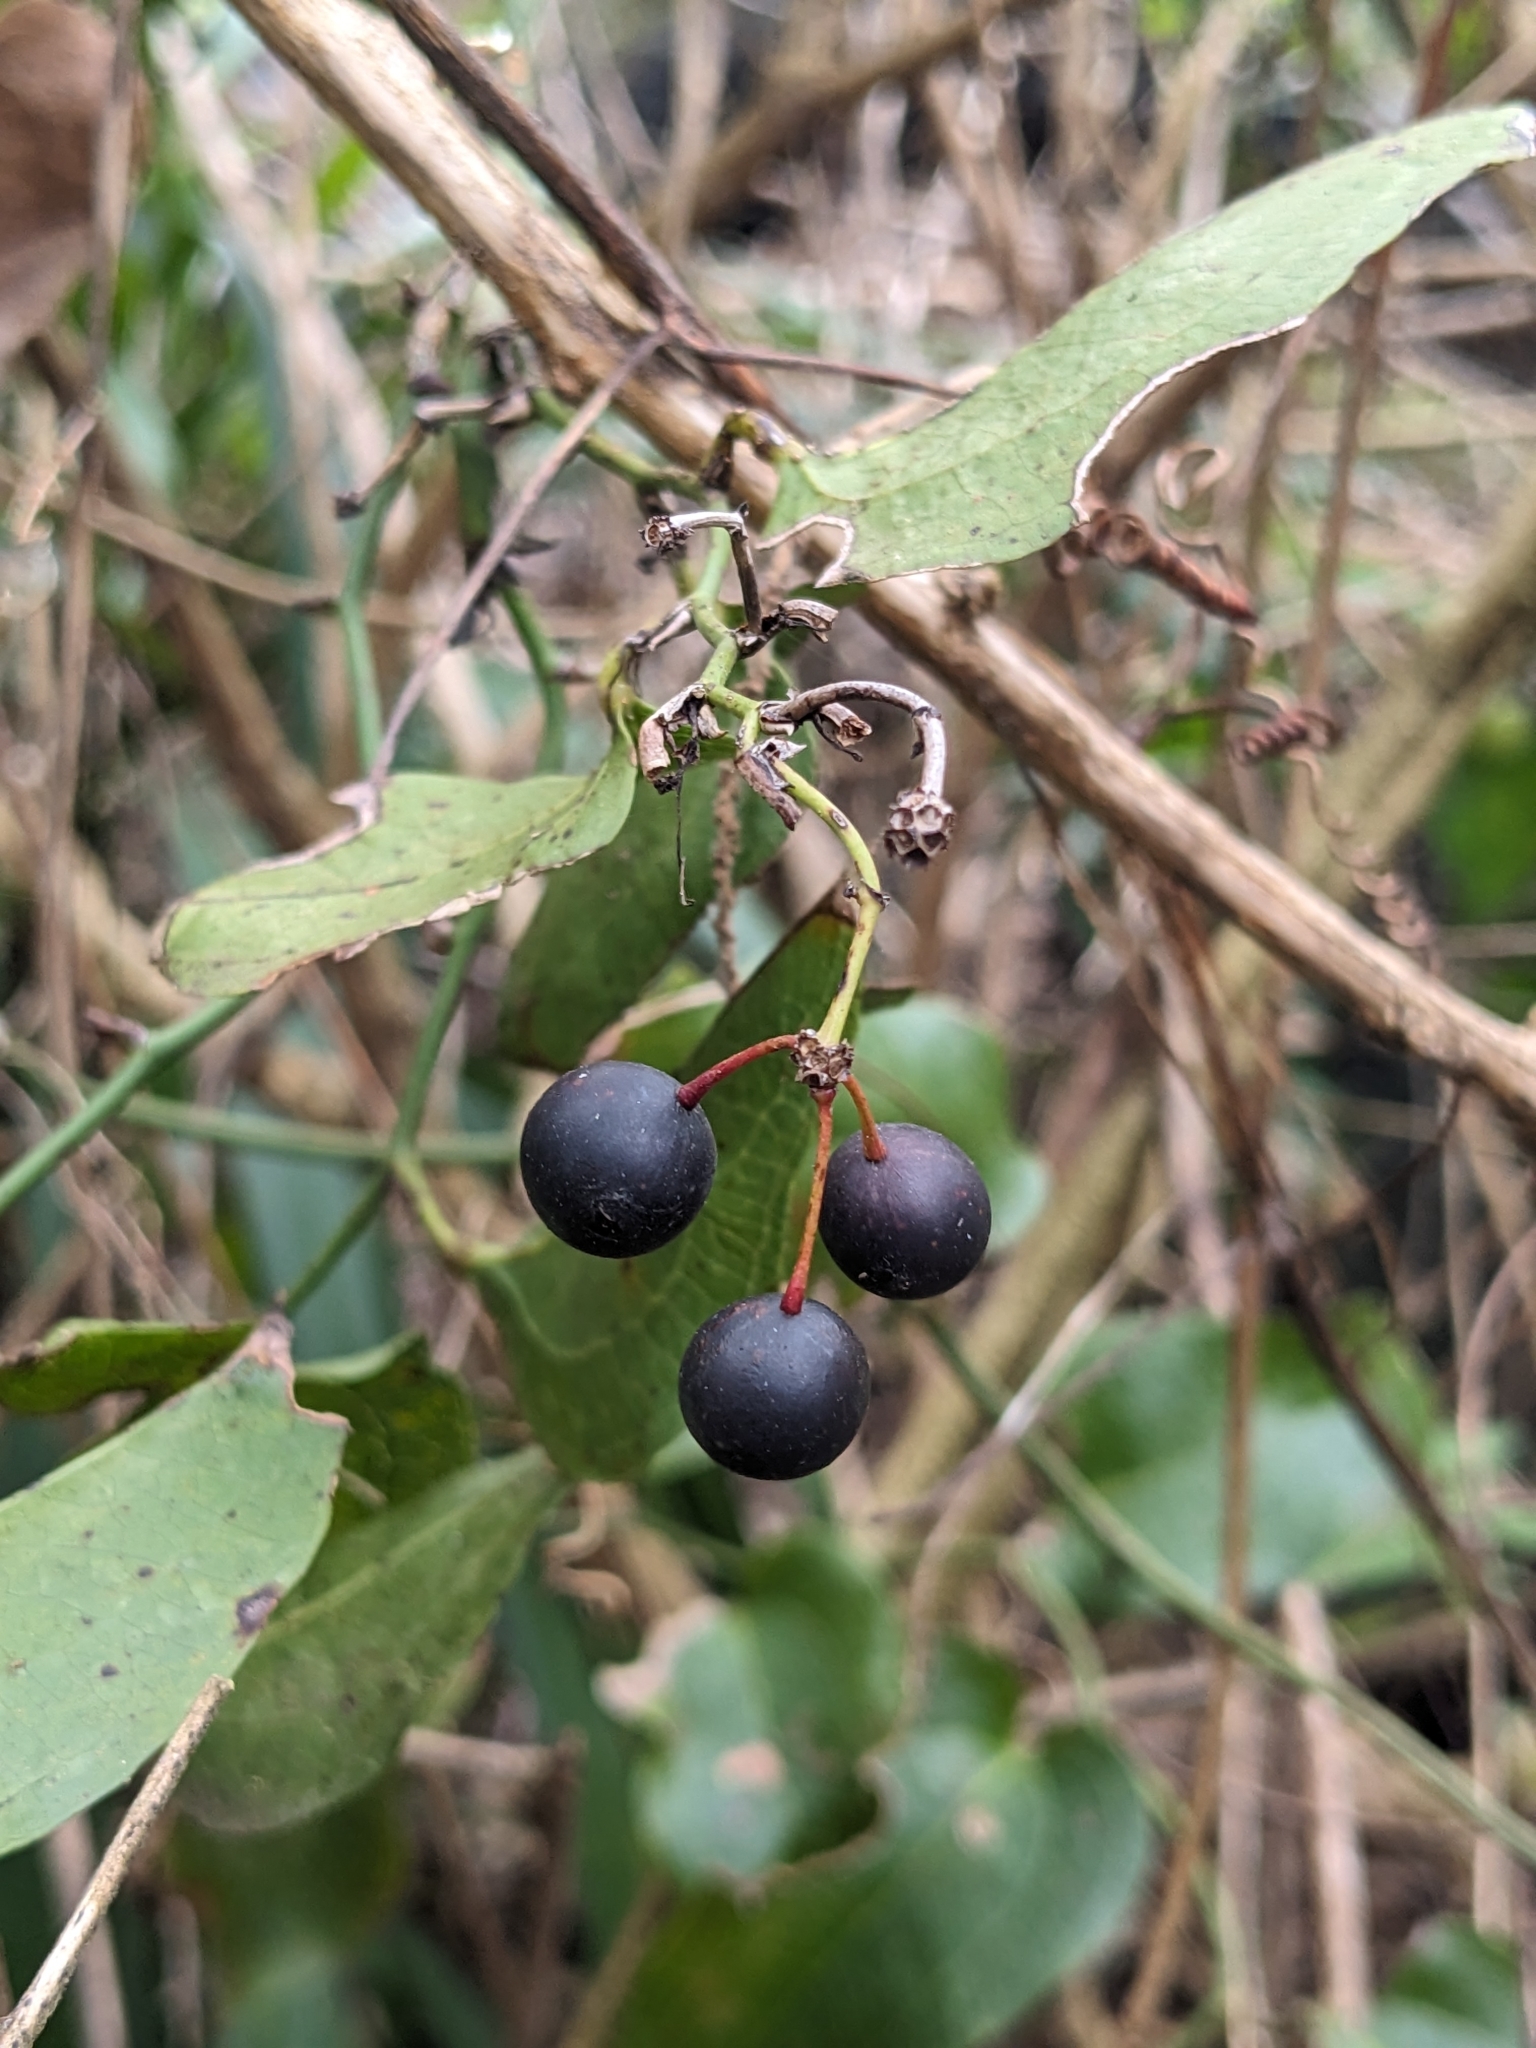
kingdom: Plantae
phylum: Tracheophyta
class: Liliopsida
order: Liliales
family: Smilacaceae
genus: Smilax
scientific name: Smilax australis
